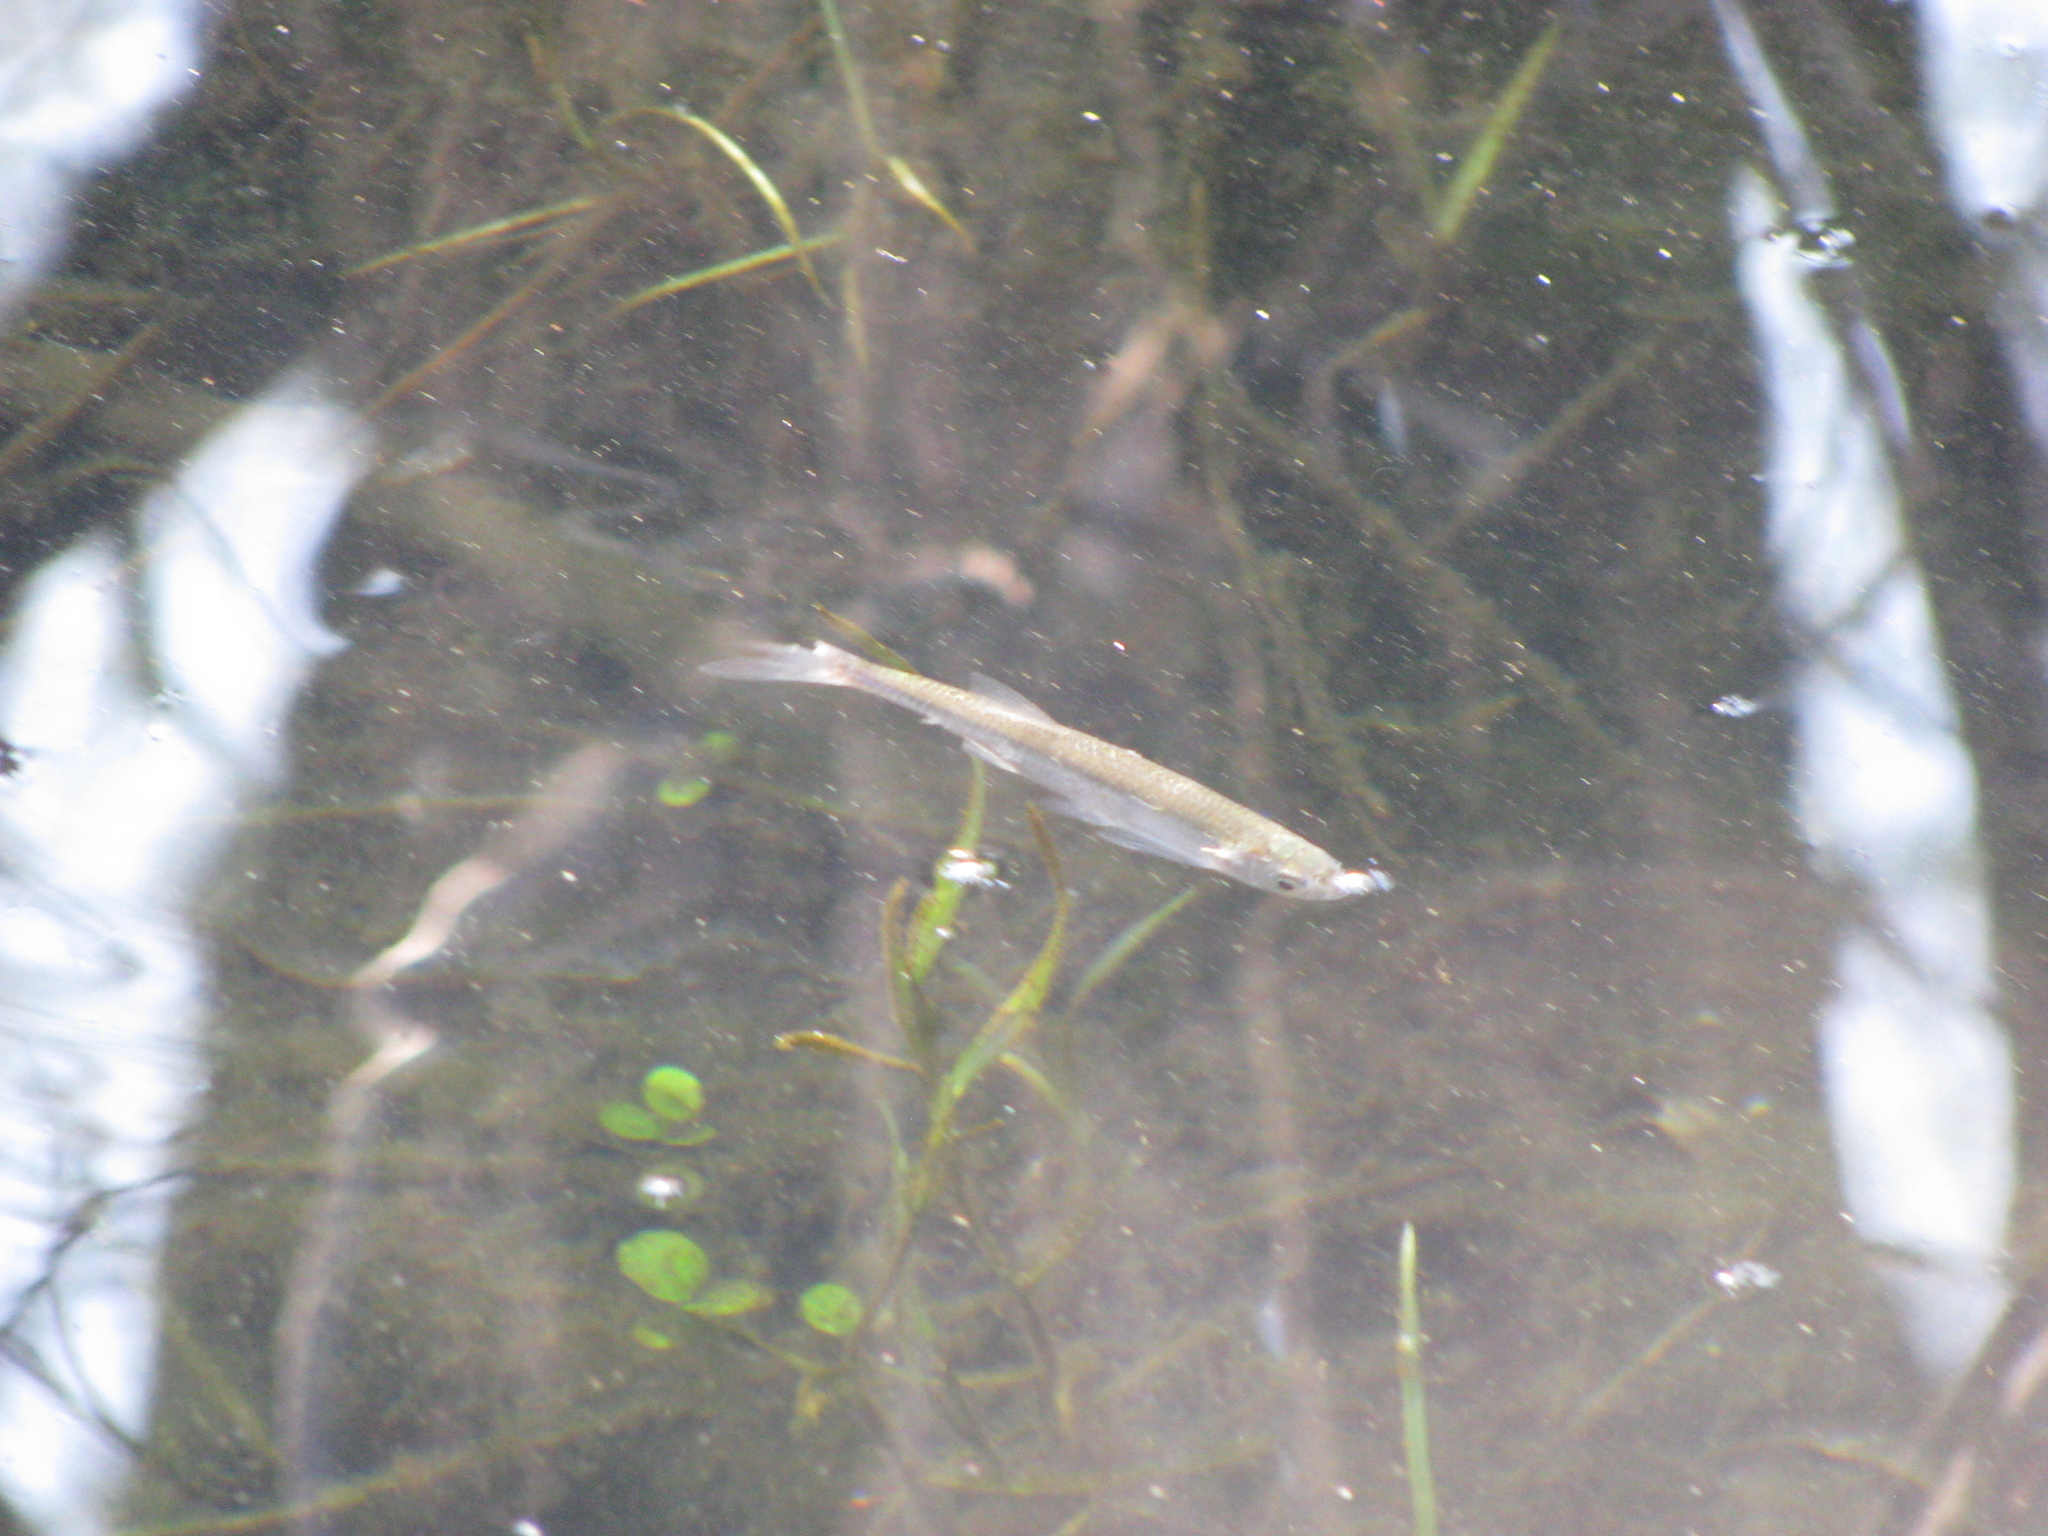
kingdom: Animalia
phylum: Chordata
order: Cypriniformes
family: Cyprinidae
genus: Alburnus
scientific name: Alburnus alburnus
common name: Bleak
